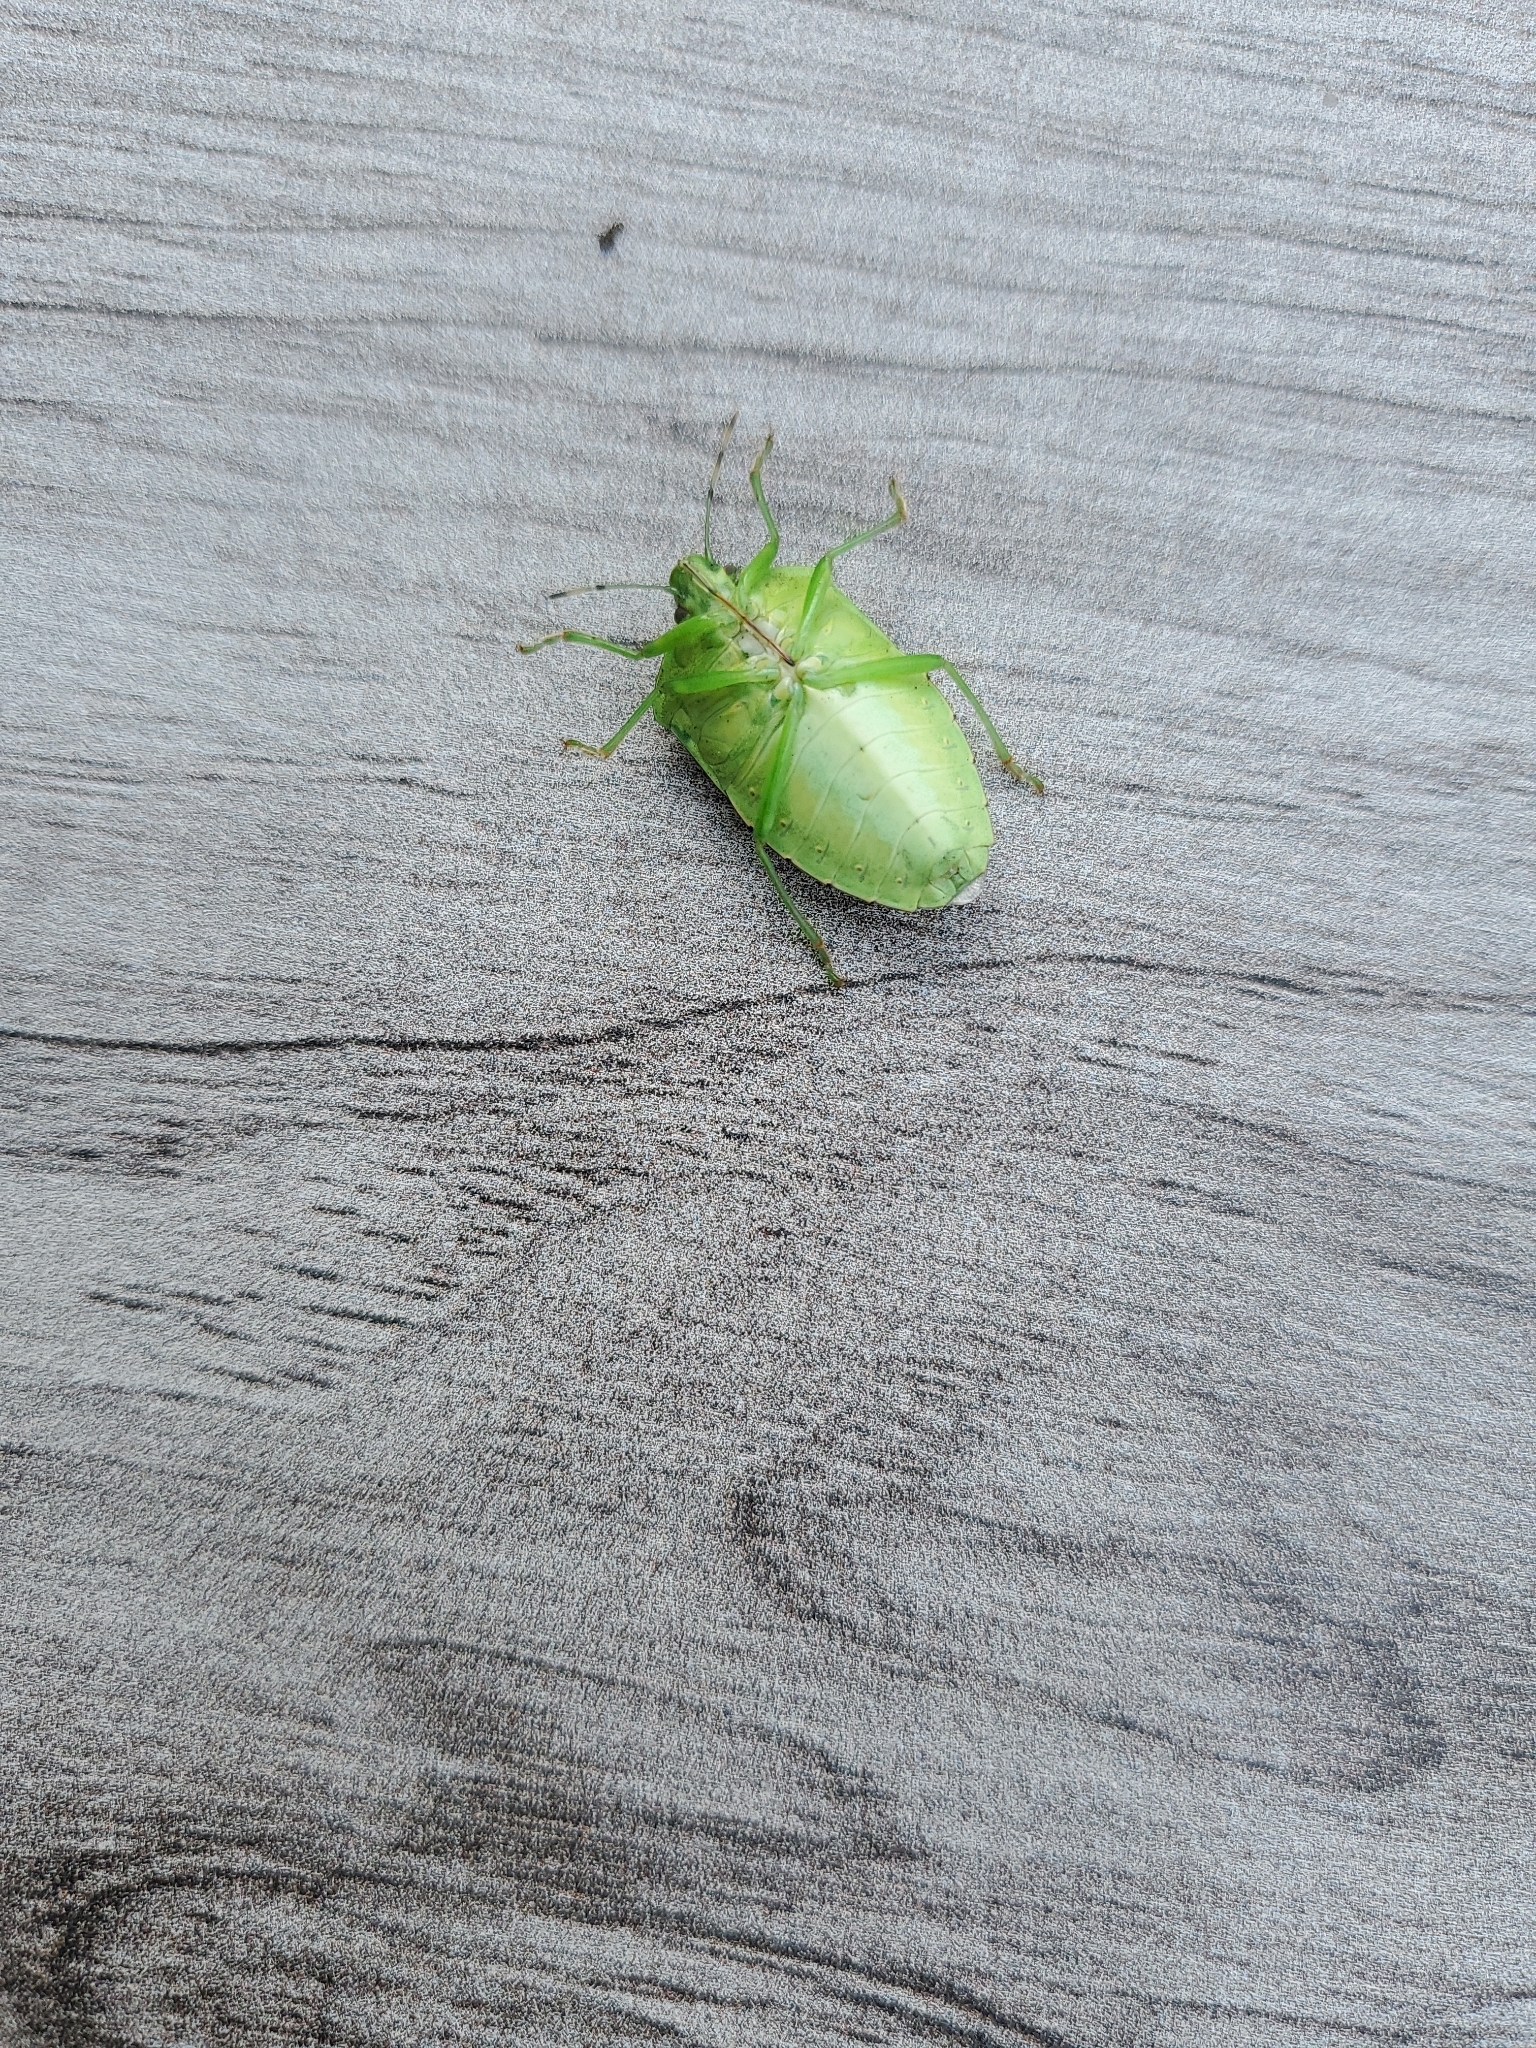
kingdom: Animalia
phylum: Arthropoda
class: Insecta
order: Hemiptera
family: Pentatomidae
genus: Chinavia
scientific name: Chinavia hilaris
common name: Green stink bug
